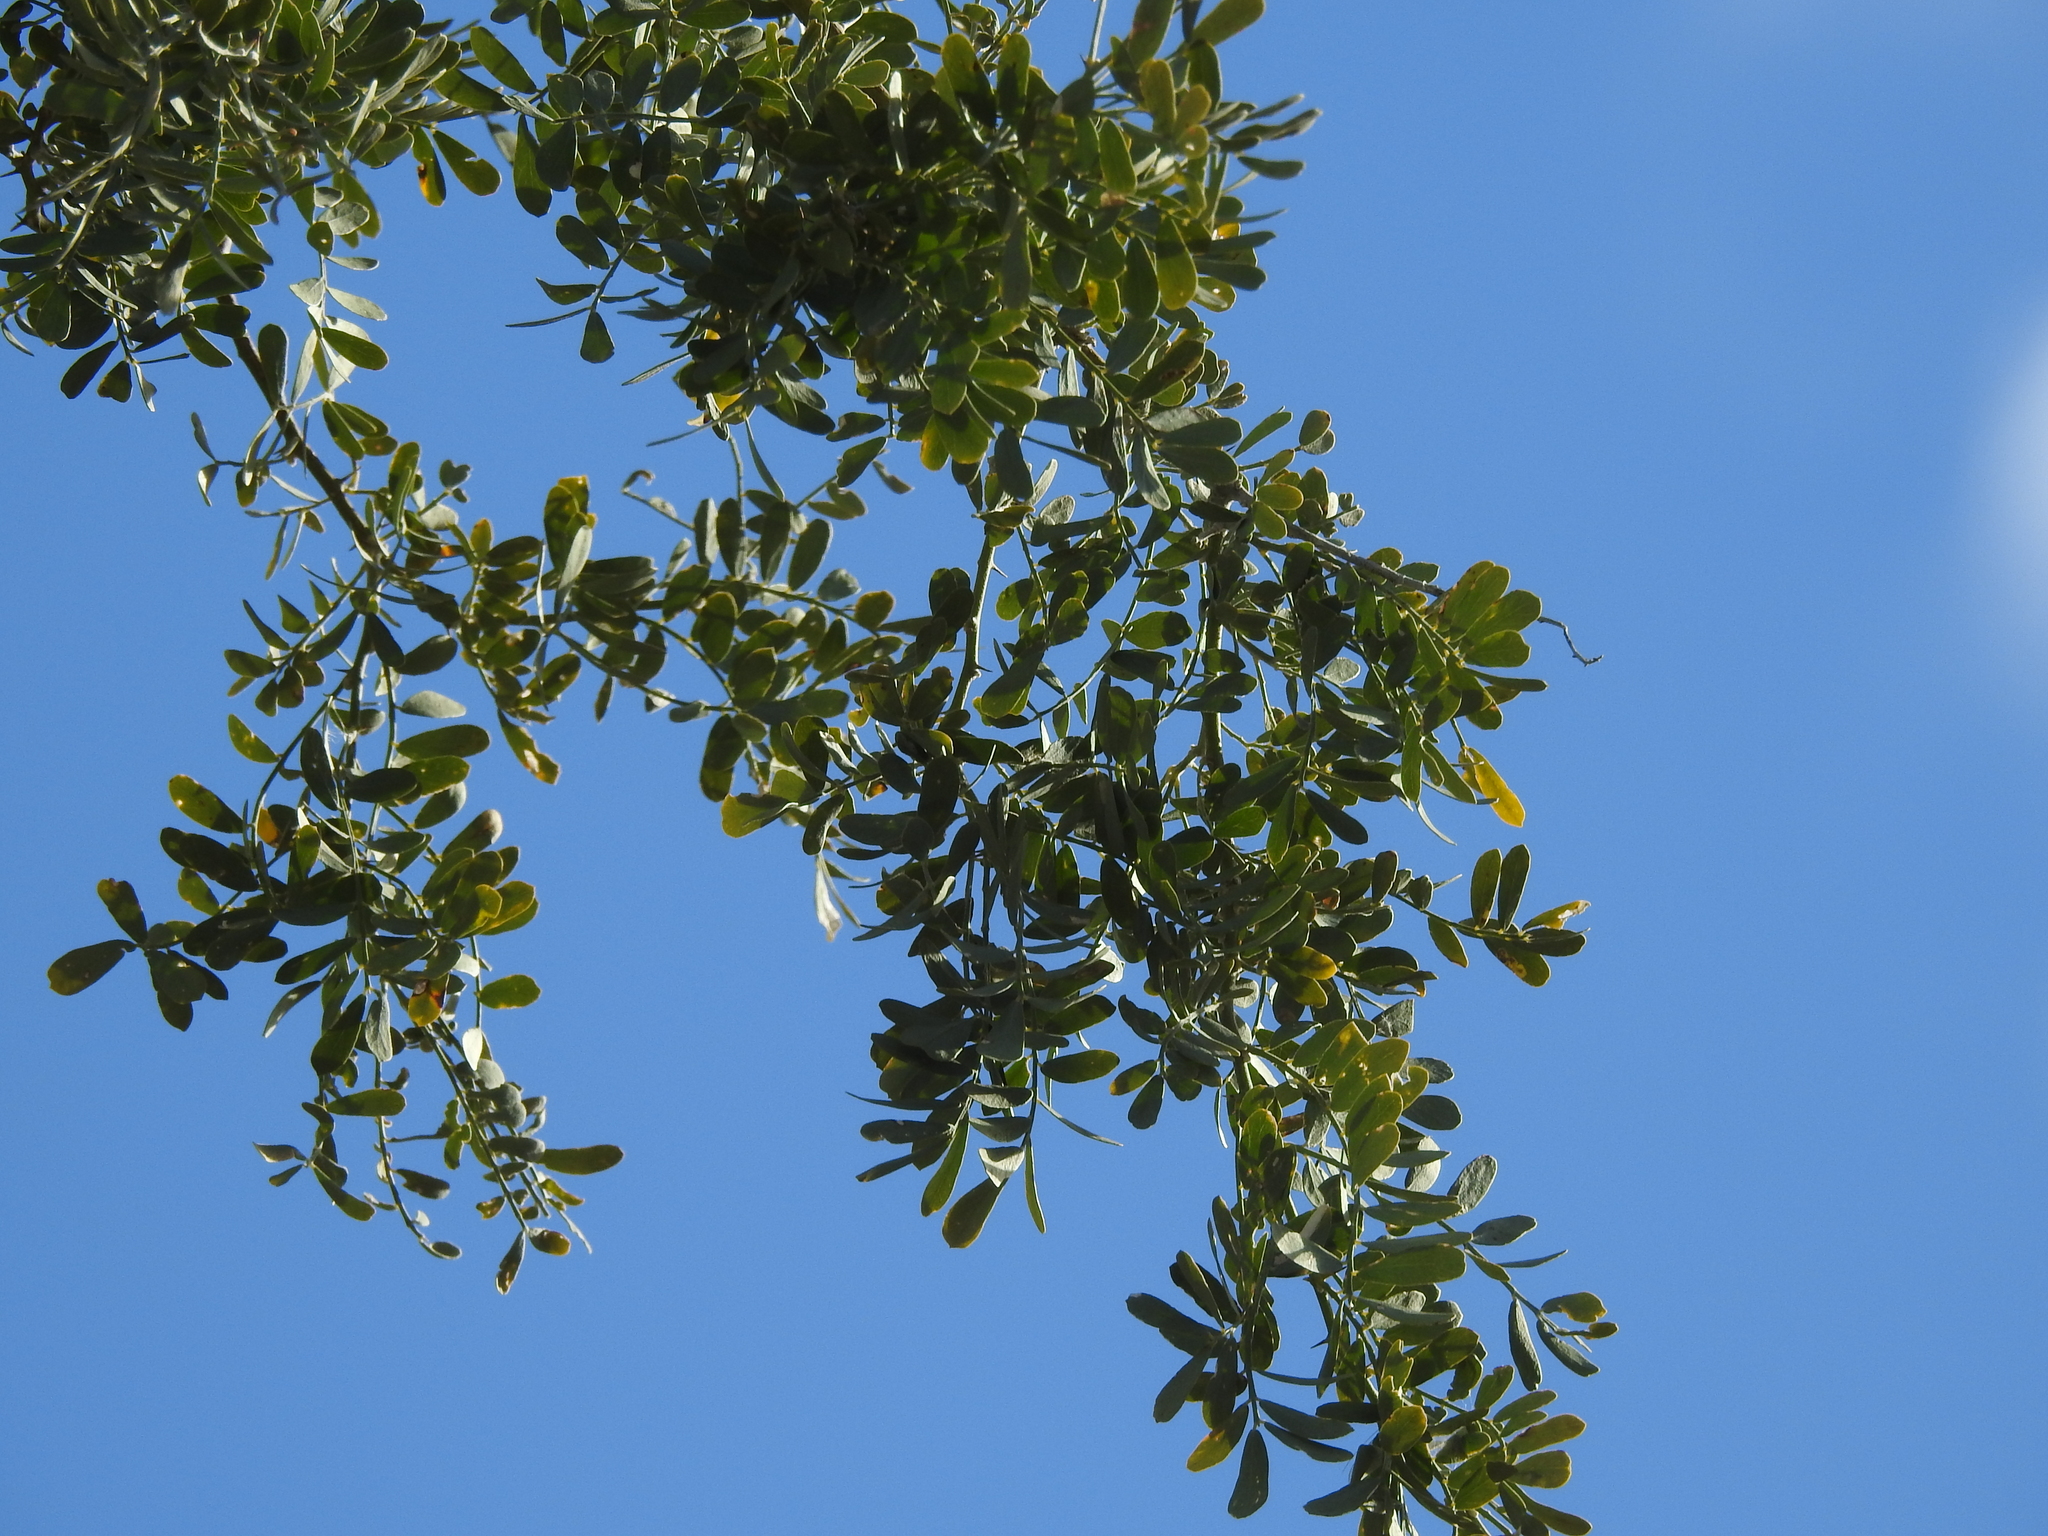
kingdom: Plantae
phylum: Tracheophyta
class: Magnoliopsida
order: Fabales
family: Fabaceae
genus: Olneya
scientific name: Olneya tesota
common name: Desert ironwood
